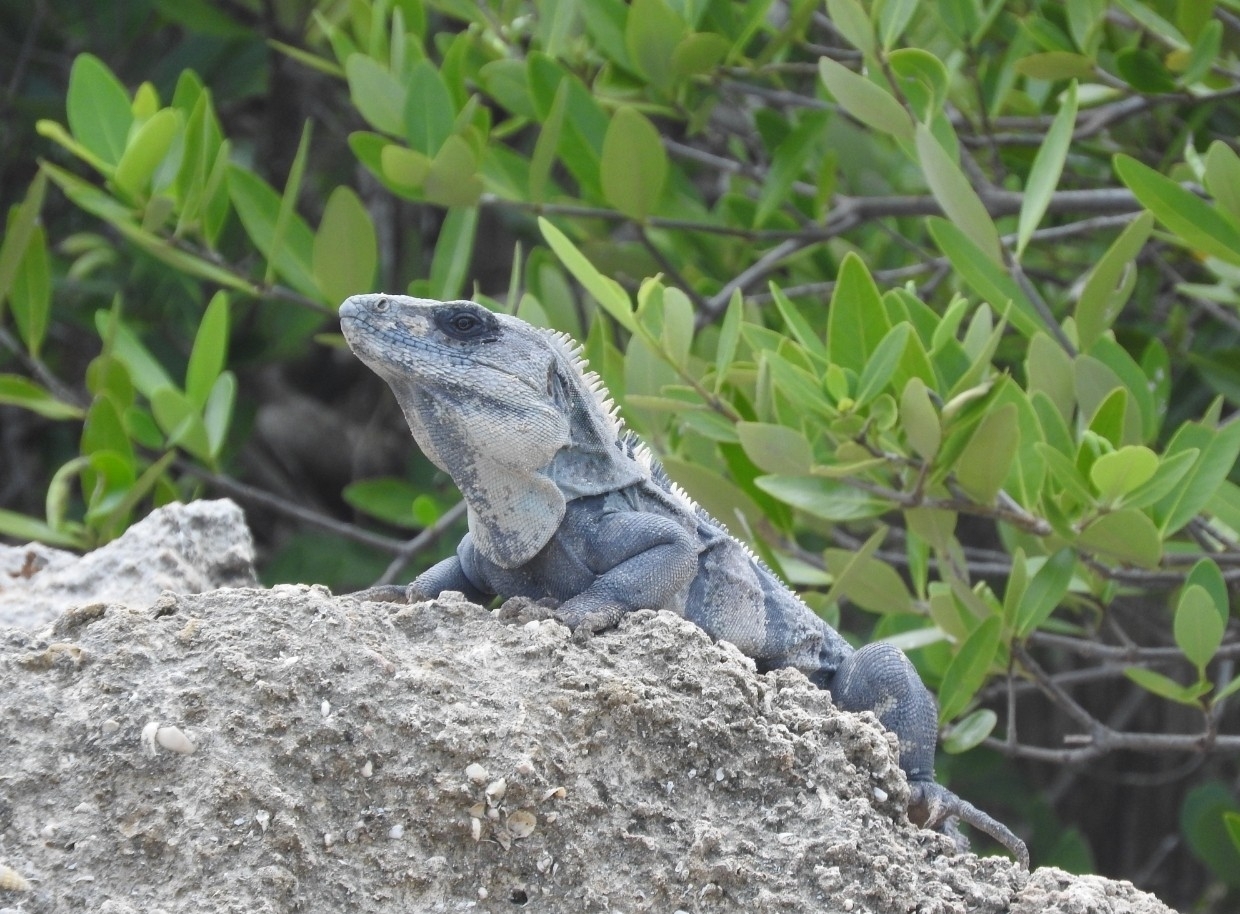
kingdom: Animalia
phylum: Chordata
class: Squamata
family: Iguanidae
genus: Ctenosaura
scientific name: Ctenosaura similis
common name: Black spiny-tailed iguana
